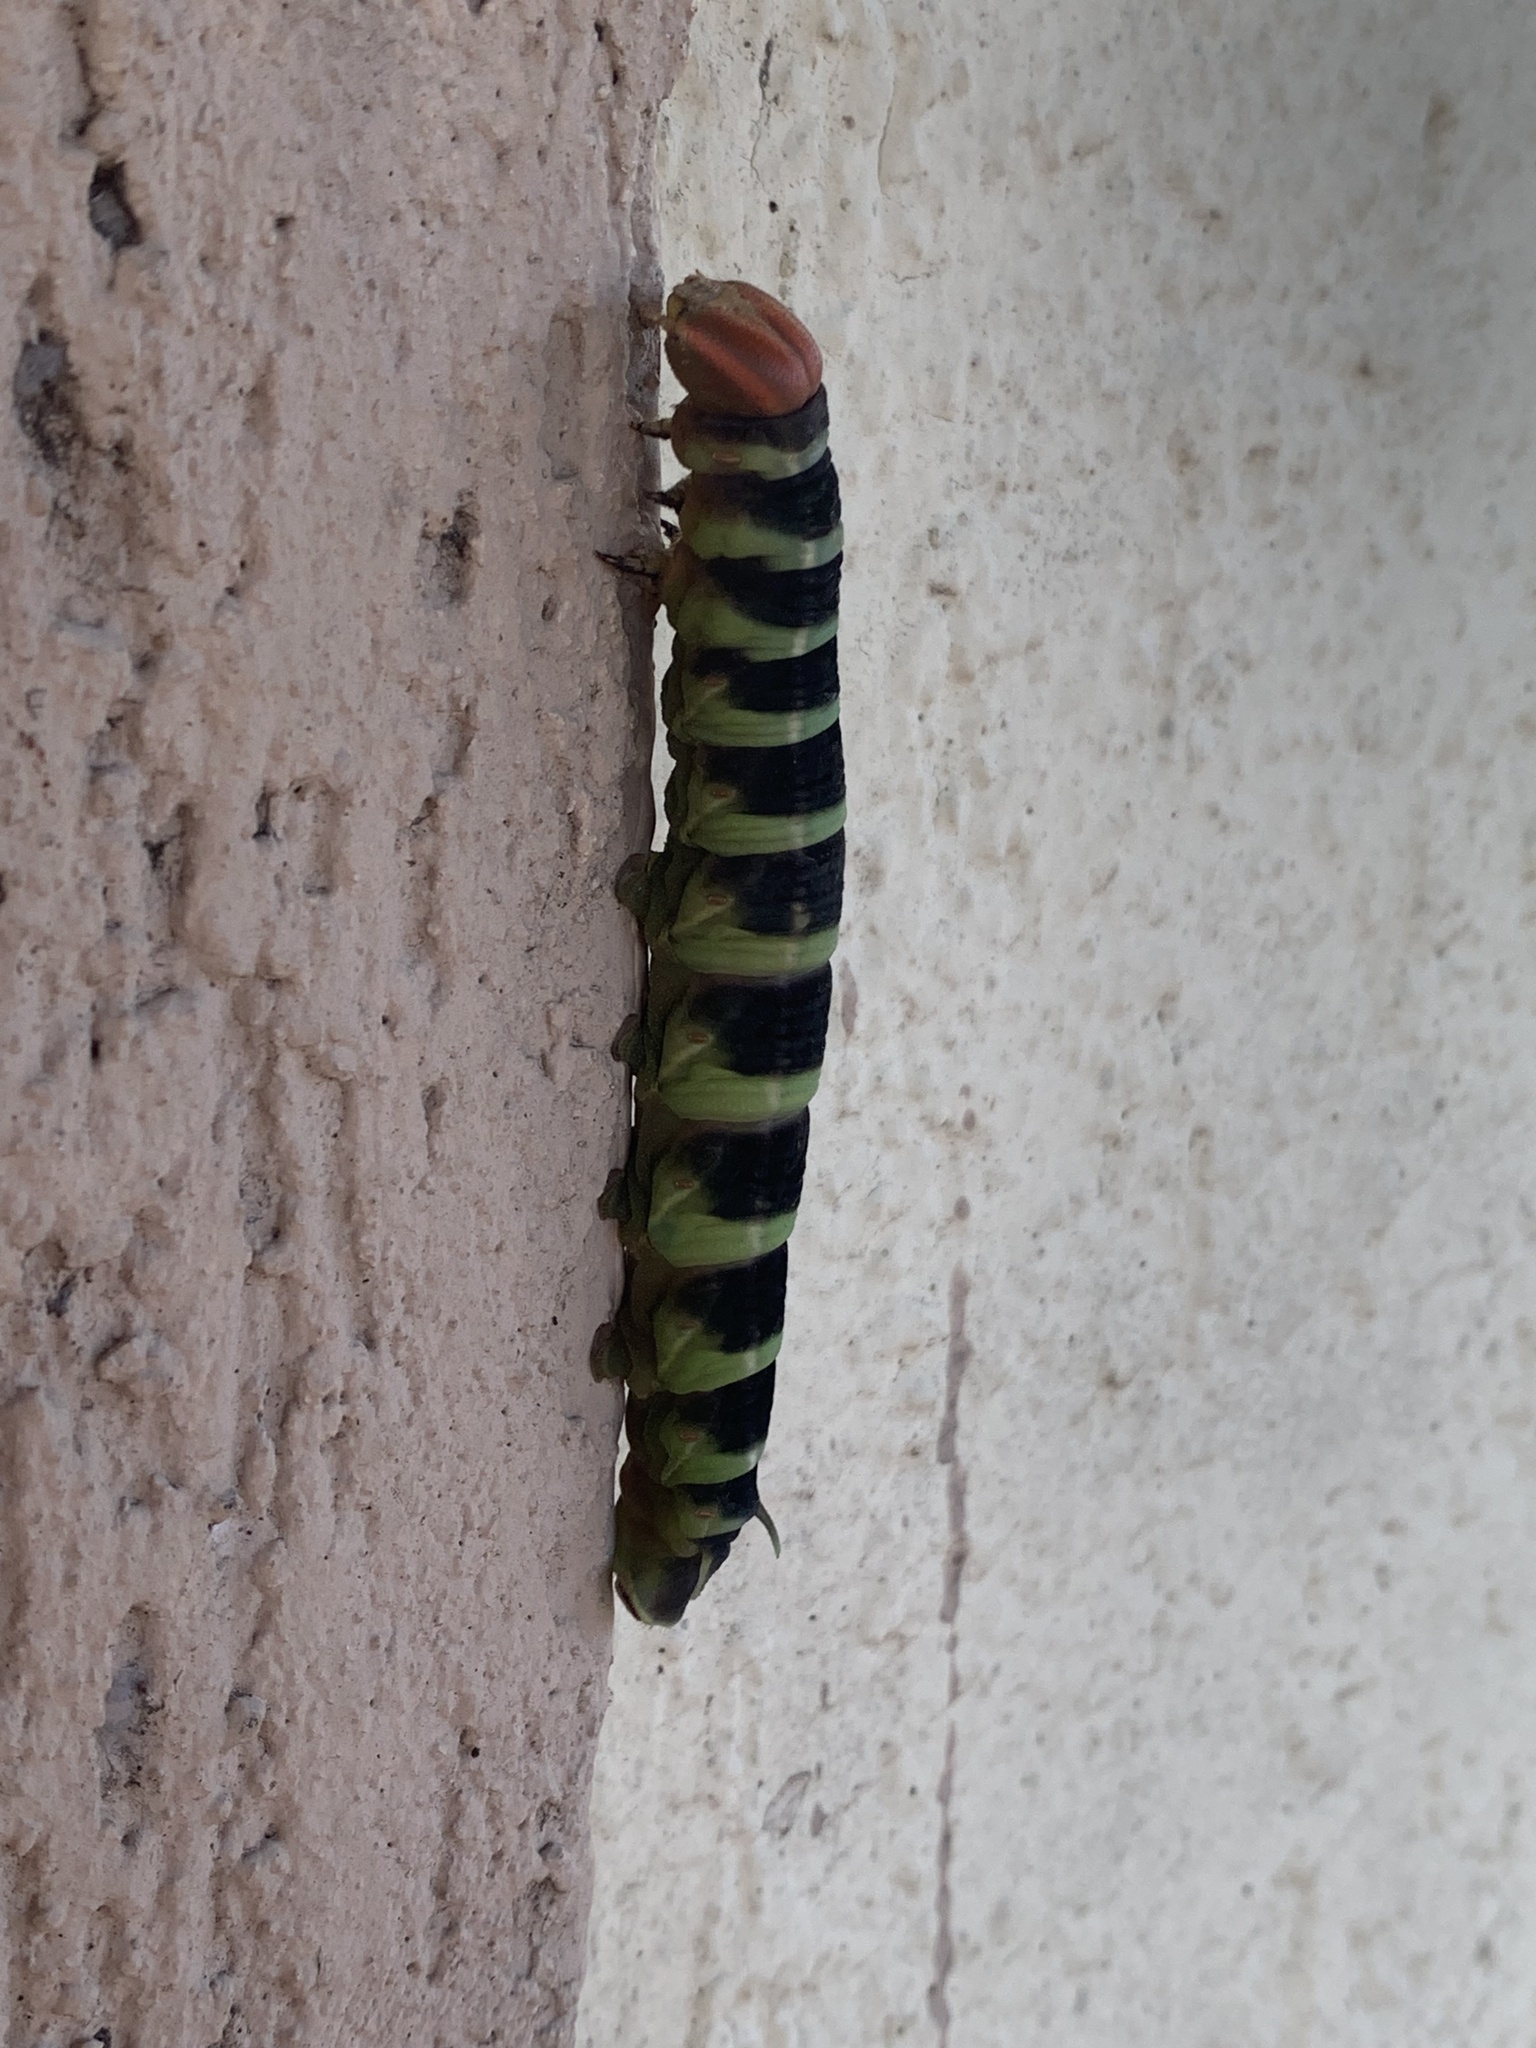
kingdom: Animalia
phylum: Arthropoda
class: Insecta
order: Lepidoptera
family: Sphingidae
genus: Pachylia
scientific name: Pachylia syces
